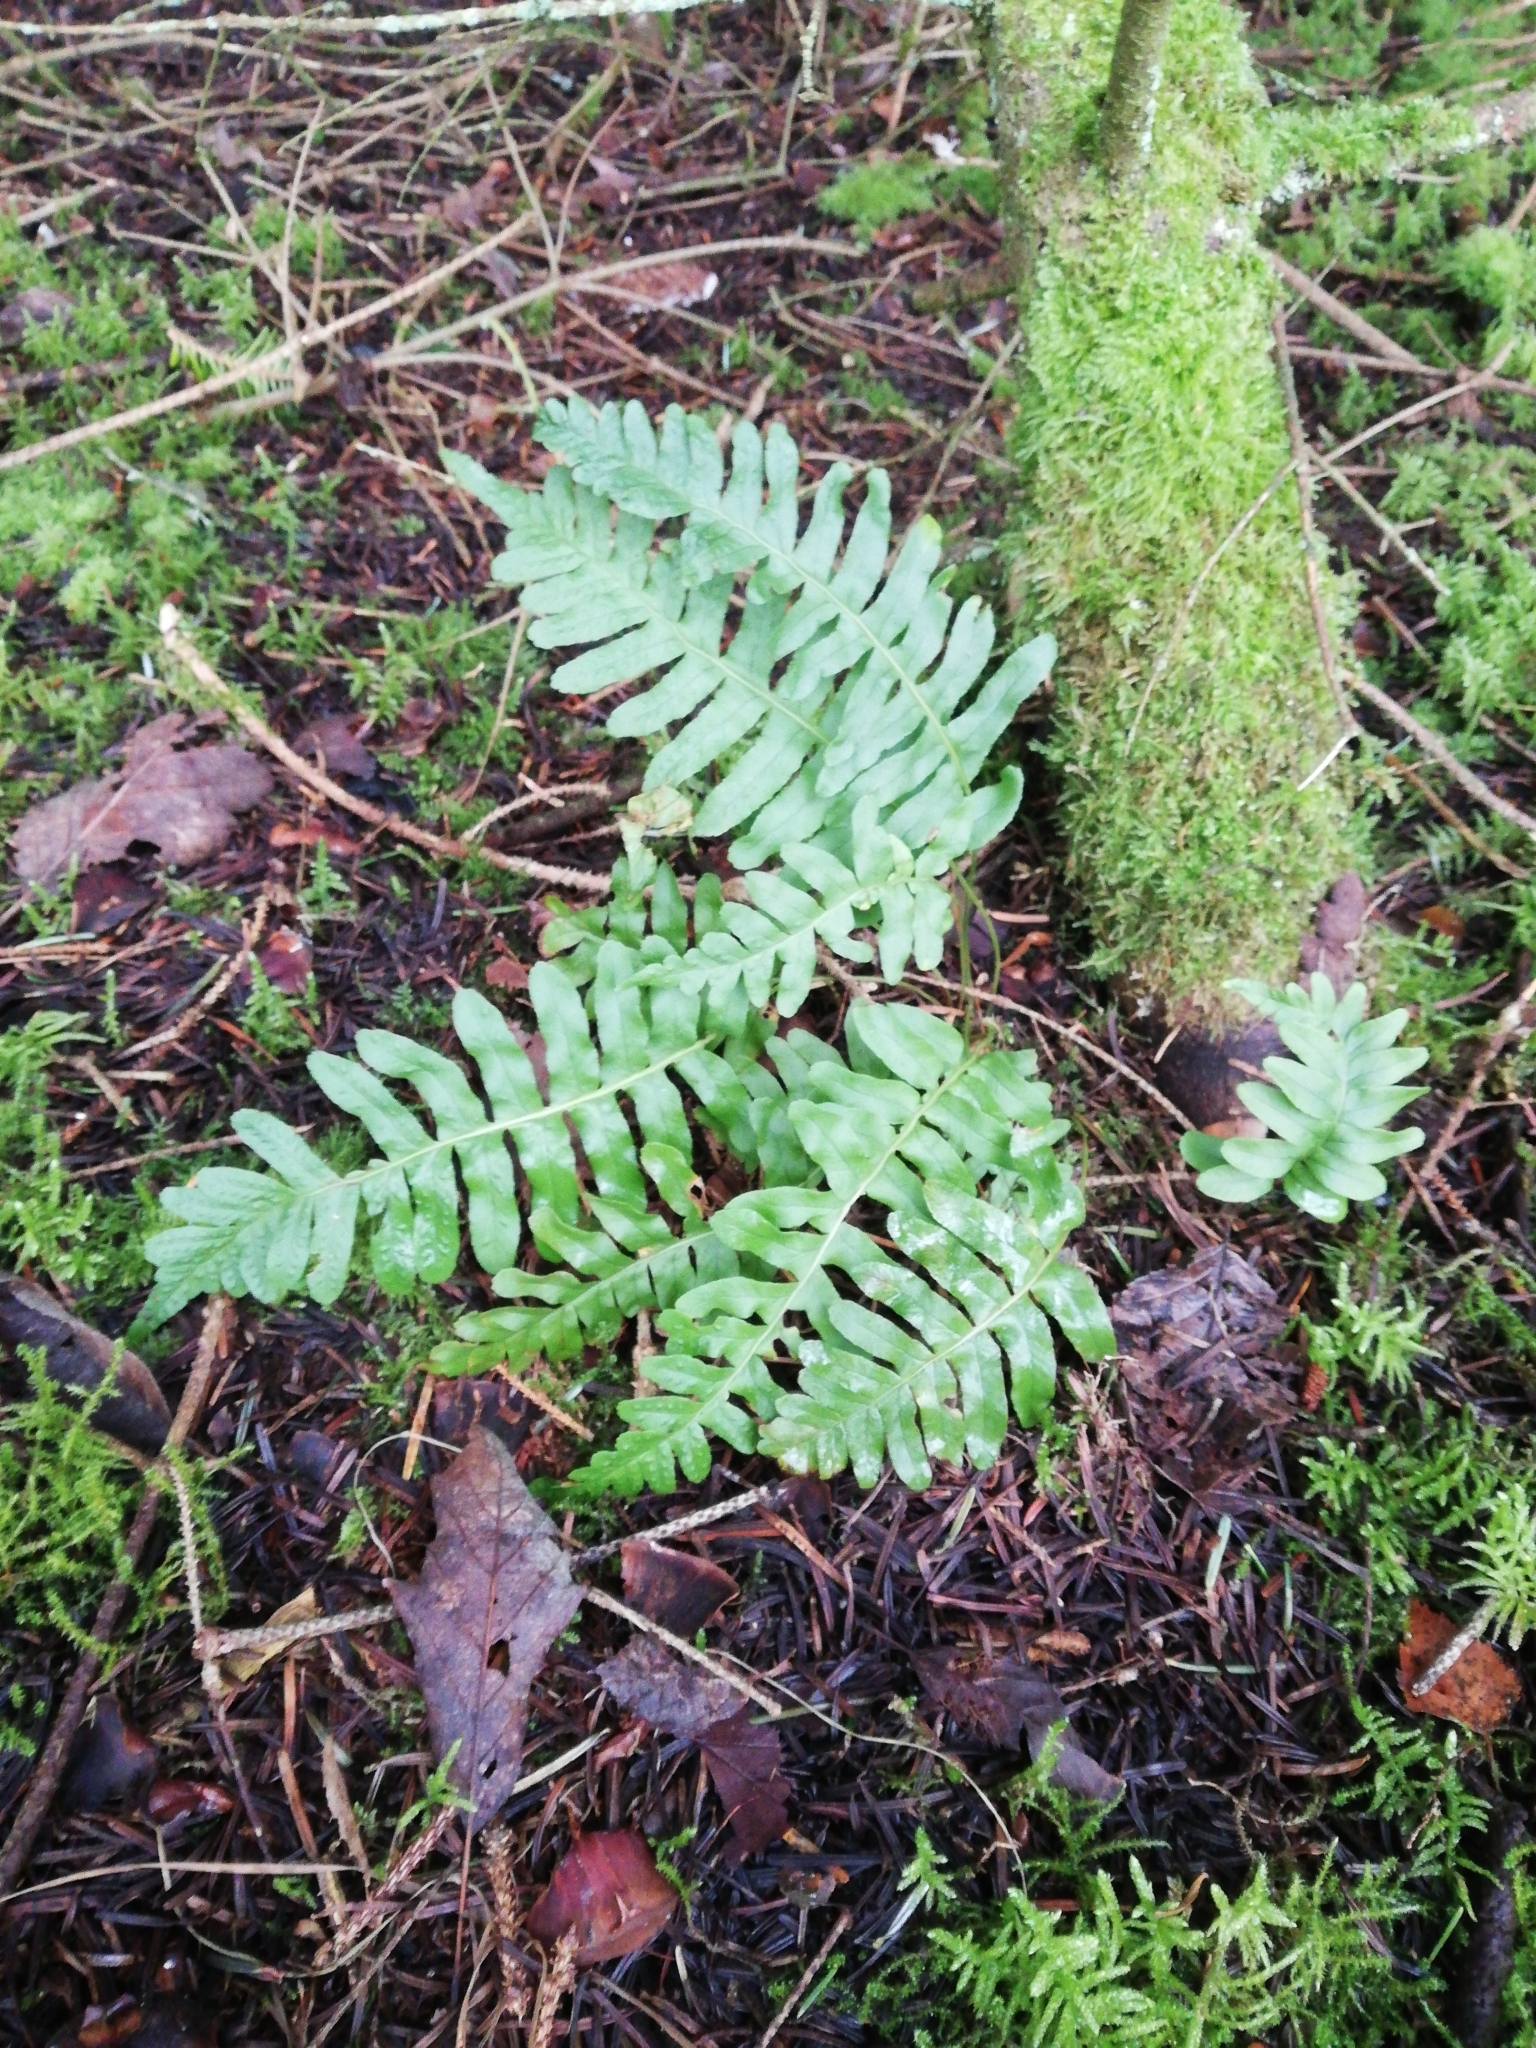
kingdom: Plantae
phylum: Tracheophyta
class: Polypodiopsida
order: Polypodiales
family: Polypodiaceae
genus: Polypodium
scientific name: Polypodium vulgare
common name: Common polypody
